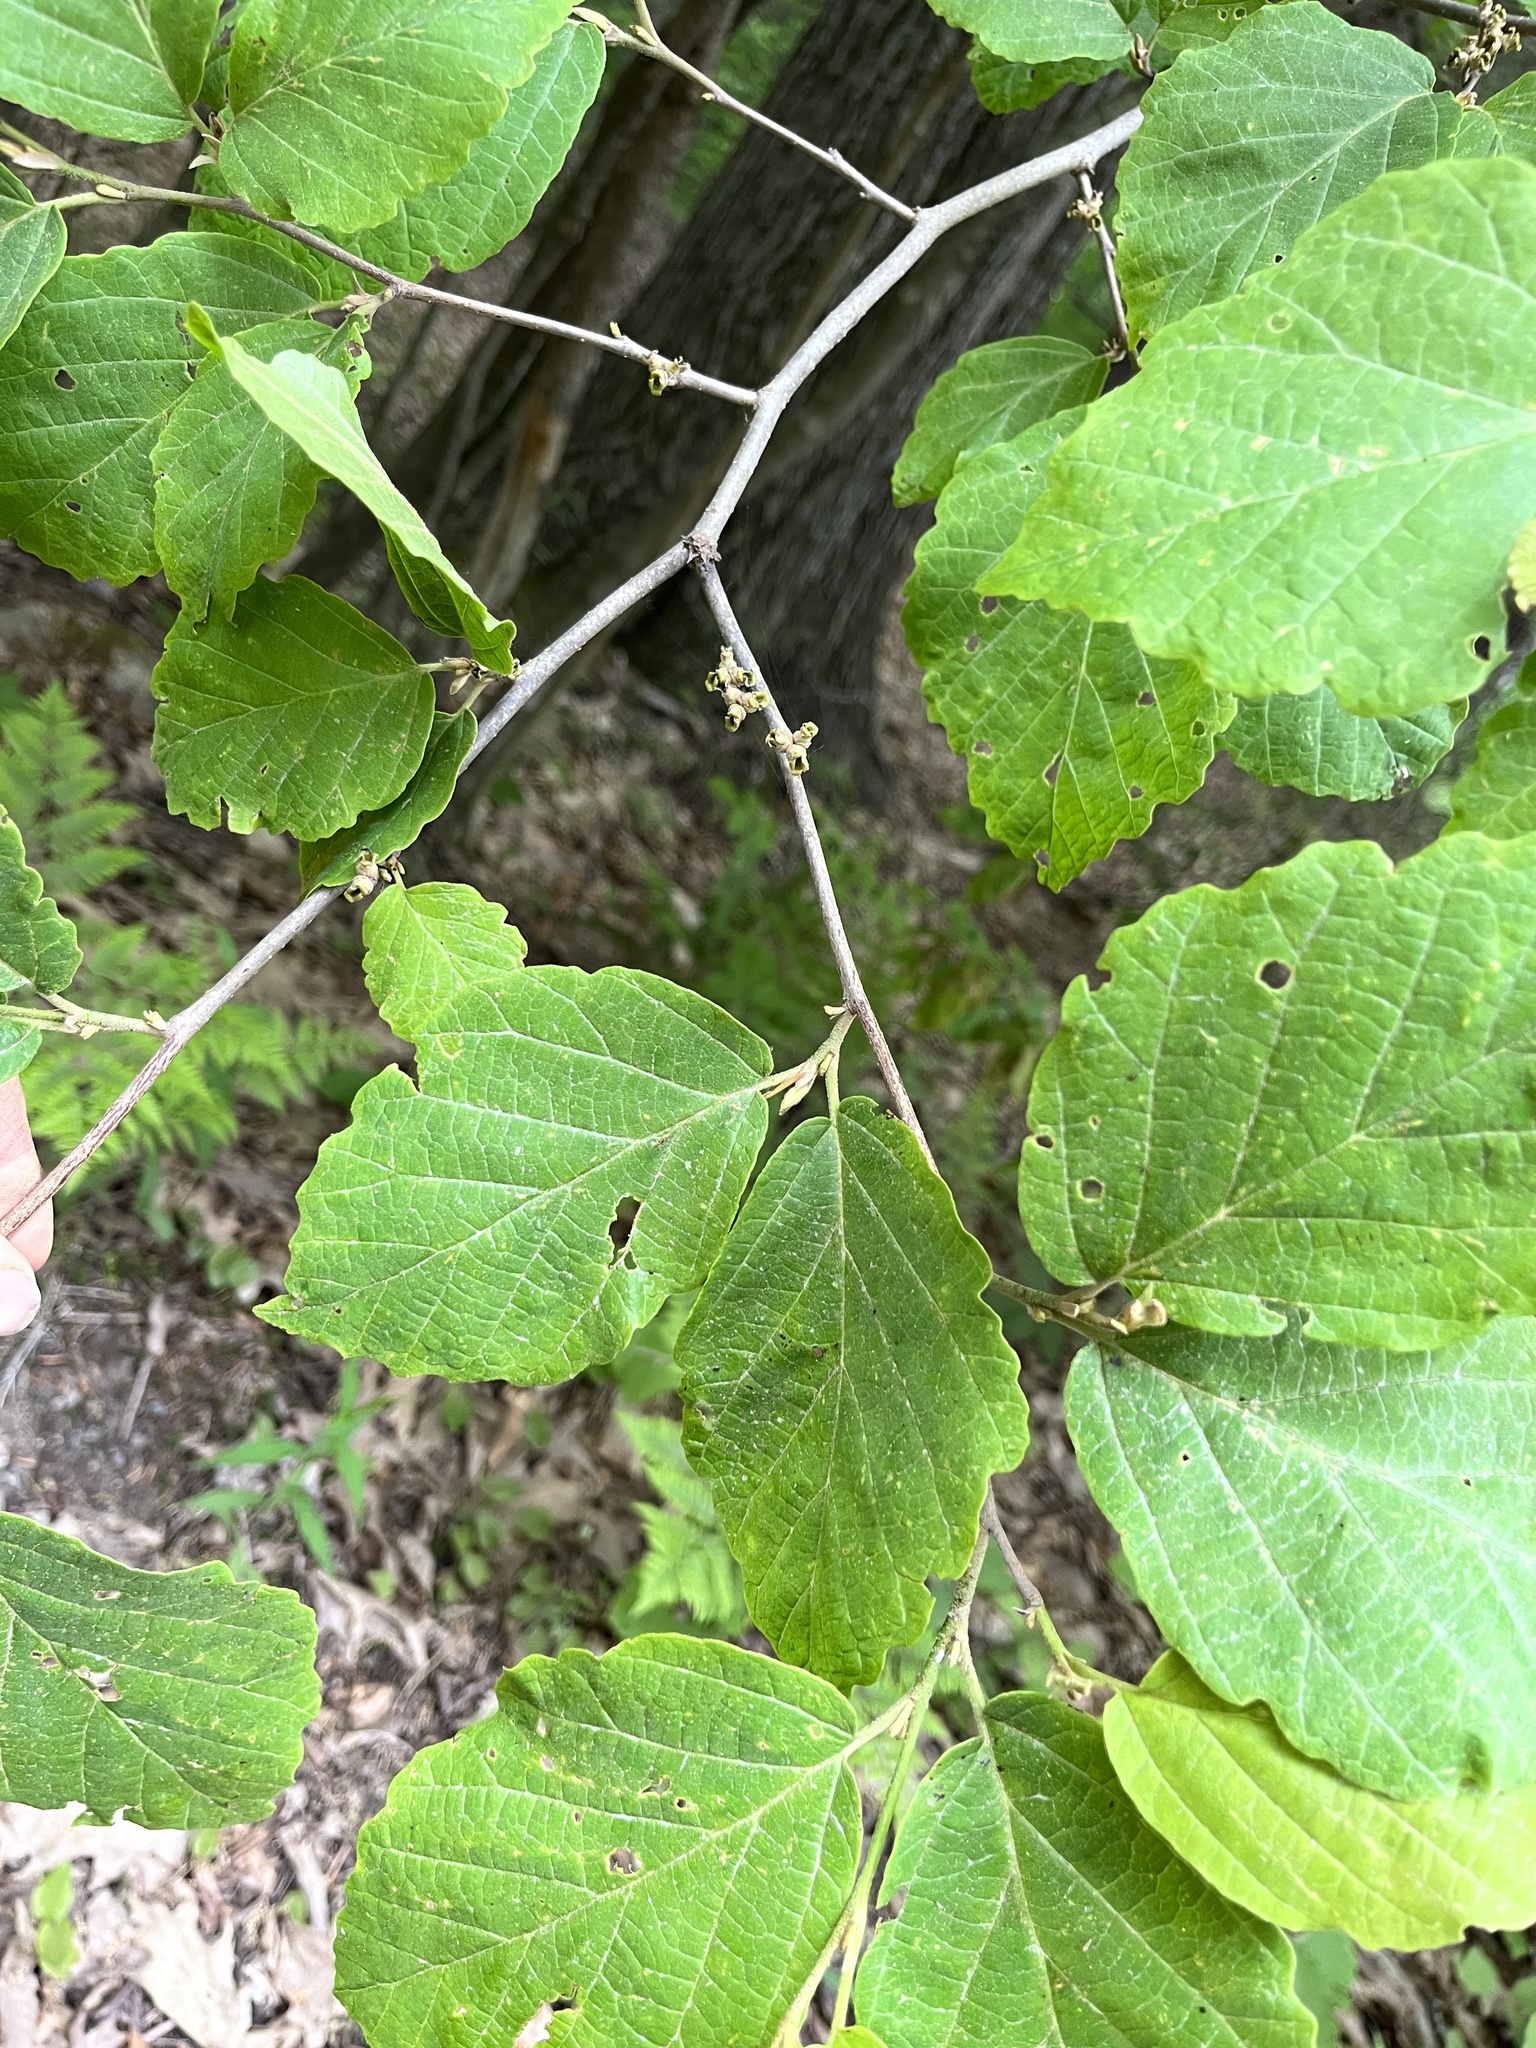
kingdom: Plantae
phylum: Tracheophyta
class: Magnoliopsida
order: Saxifragales
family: Hamamelidaceae
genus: Hamamelis
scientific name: Hamamelis virginiana
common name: Witch-hazel
